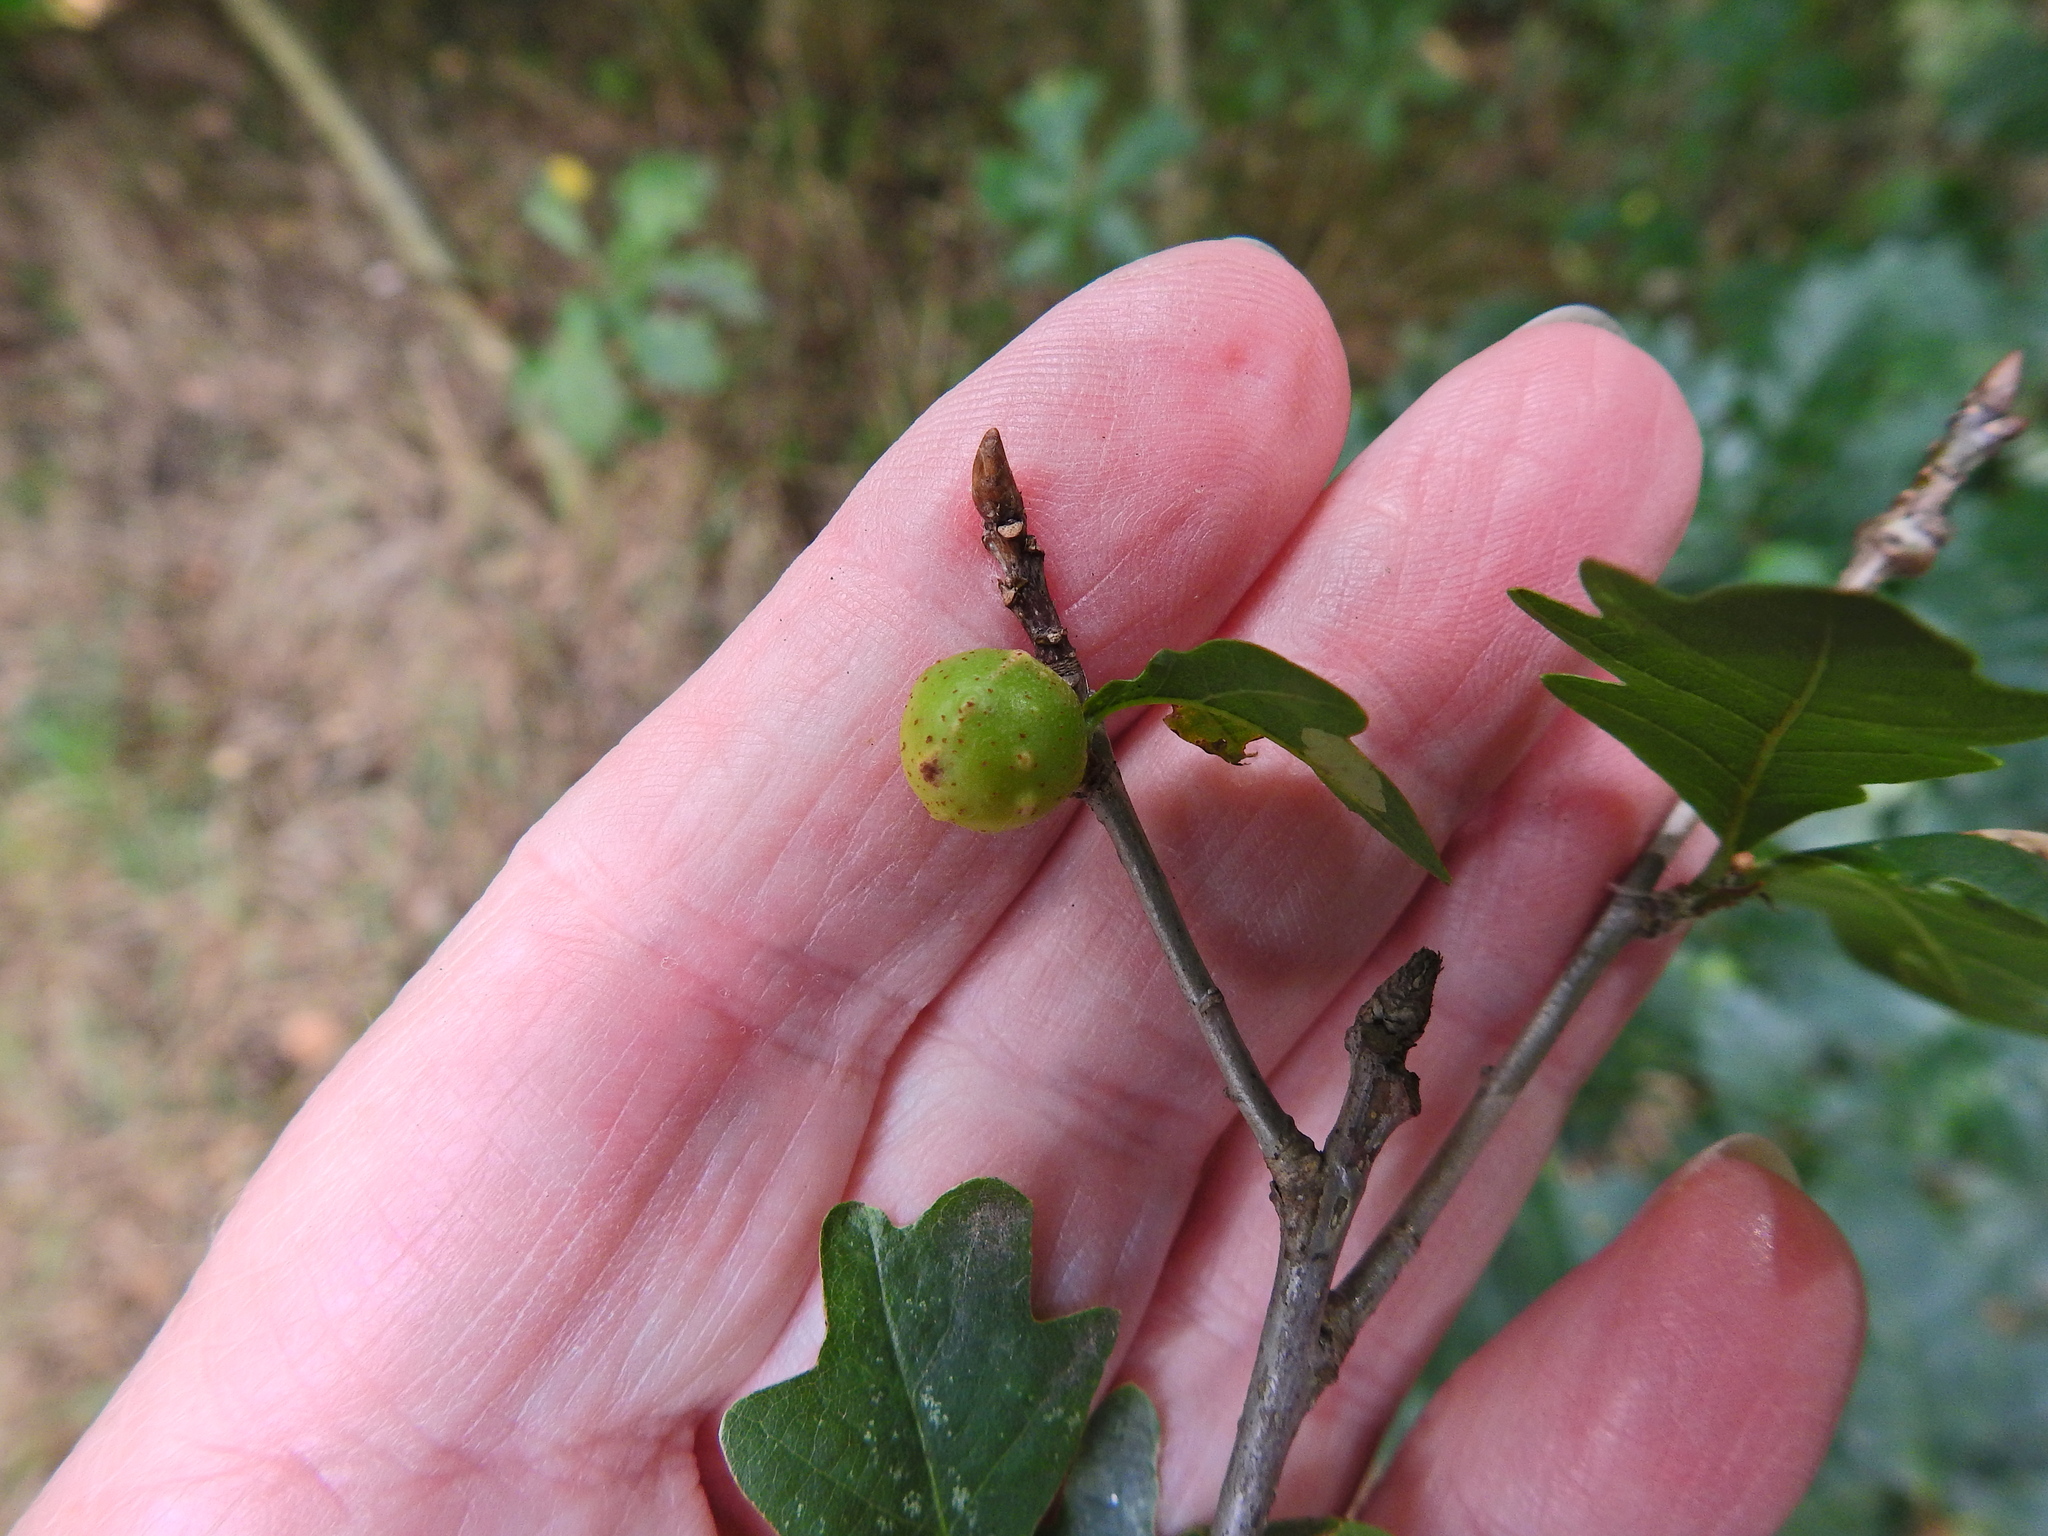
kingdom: Animalia
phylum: Arthropoda
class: Insecta
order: Hymenoptera
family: Cynipidae
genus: Andricus
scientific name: Andricus infectorius
